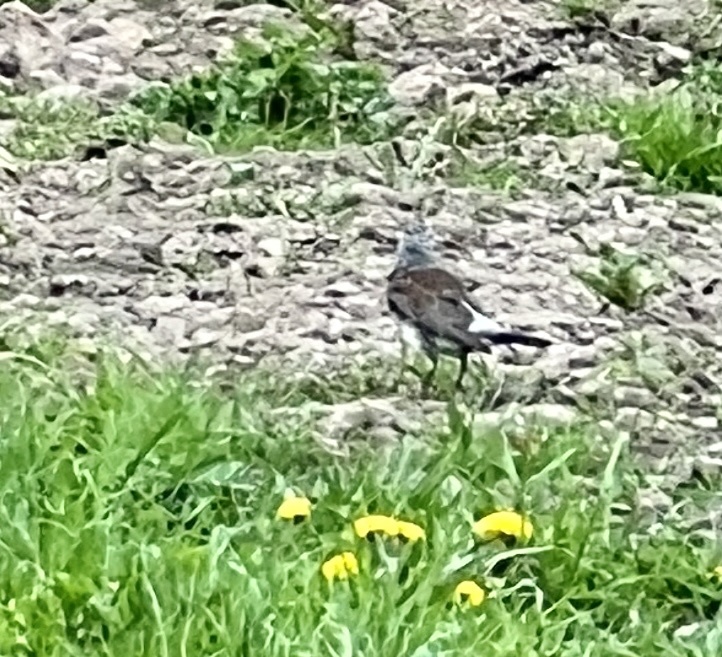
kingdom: Animalia
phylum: Chordata
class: Aves
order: Passeriformes
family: Turdidae
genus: Turdus
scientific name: Turdus pilaris
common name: Fieldfare
